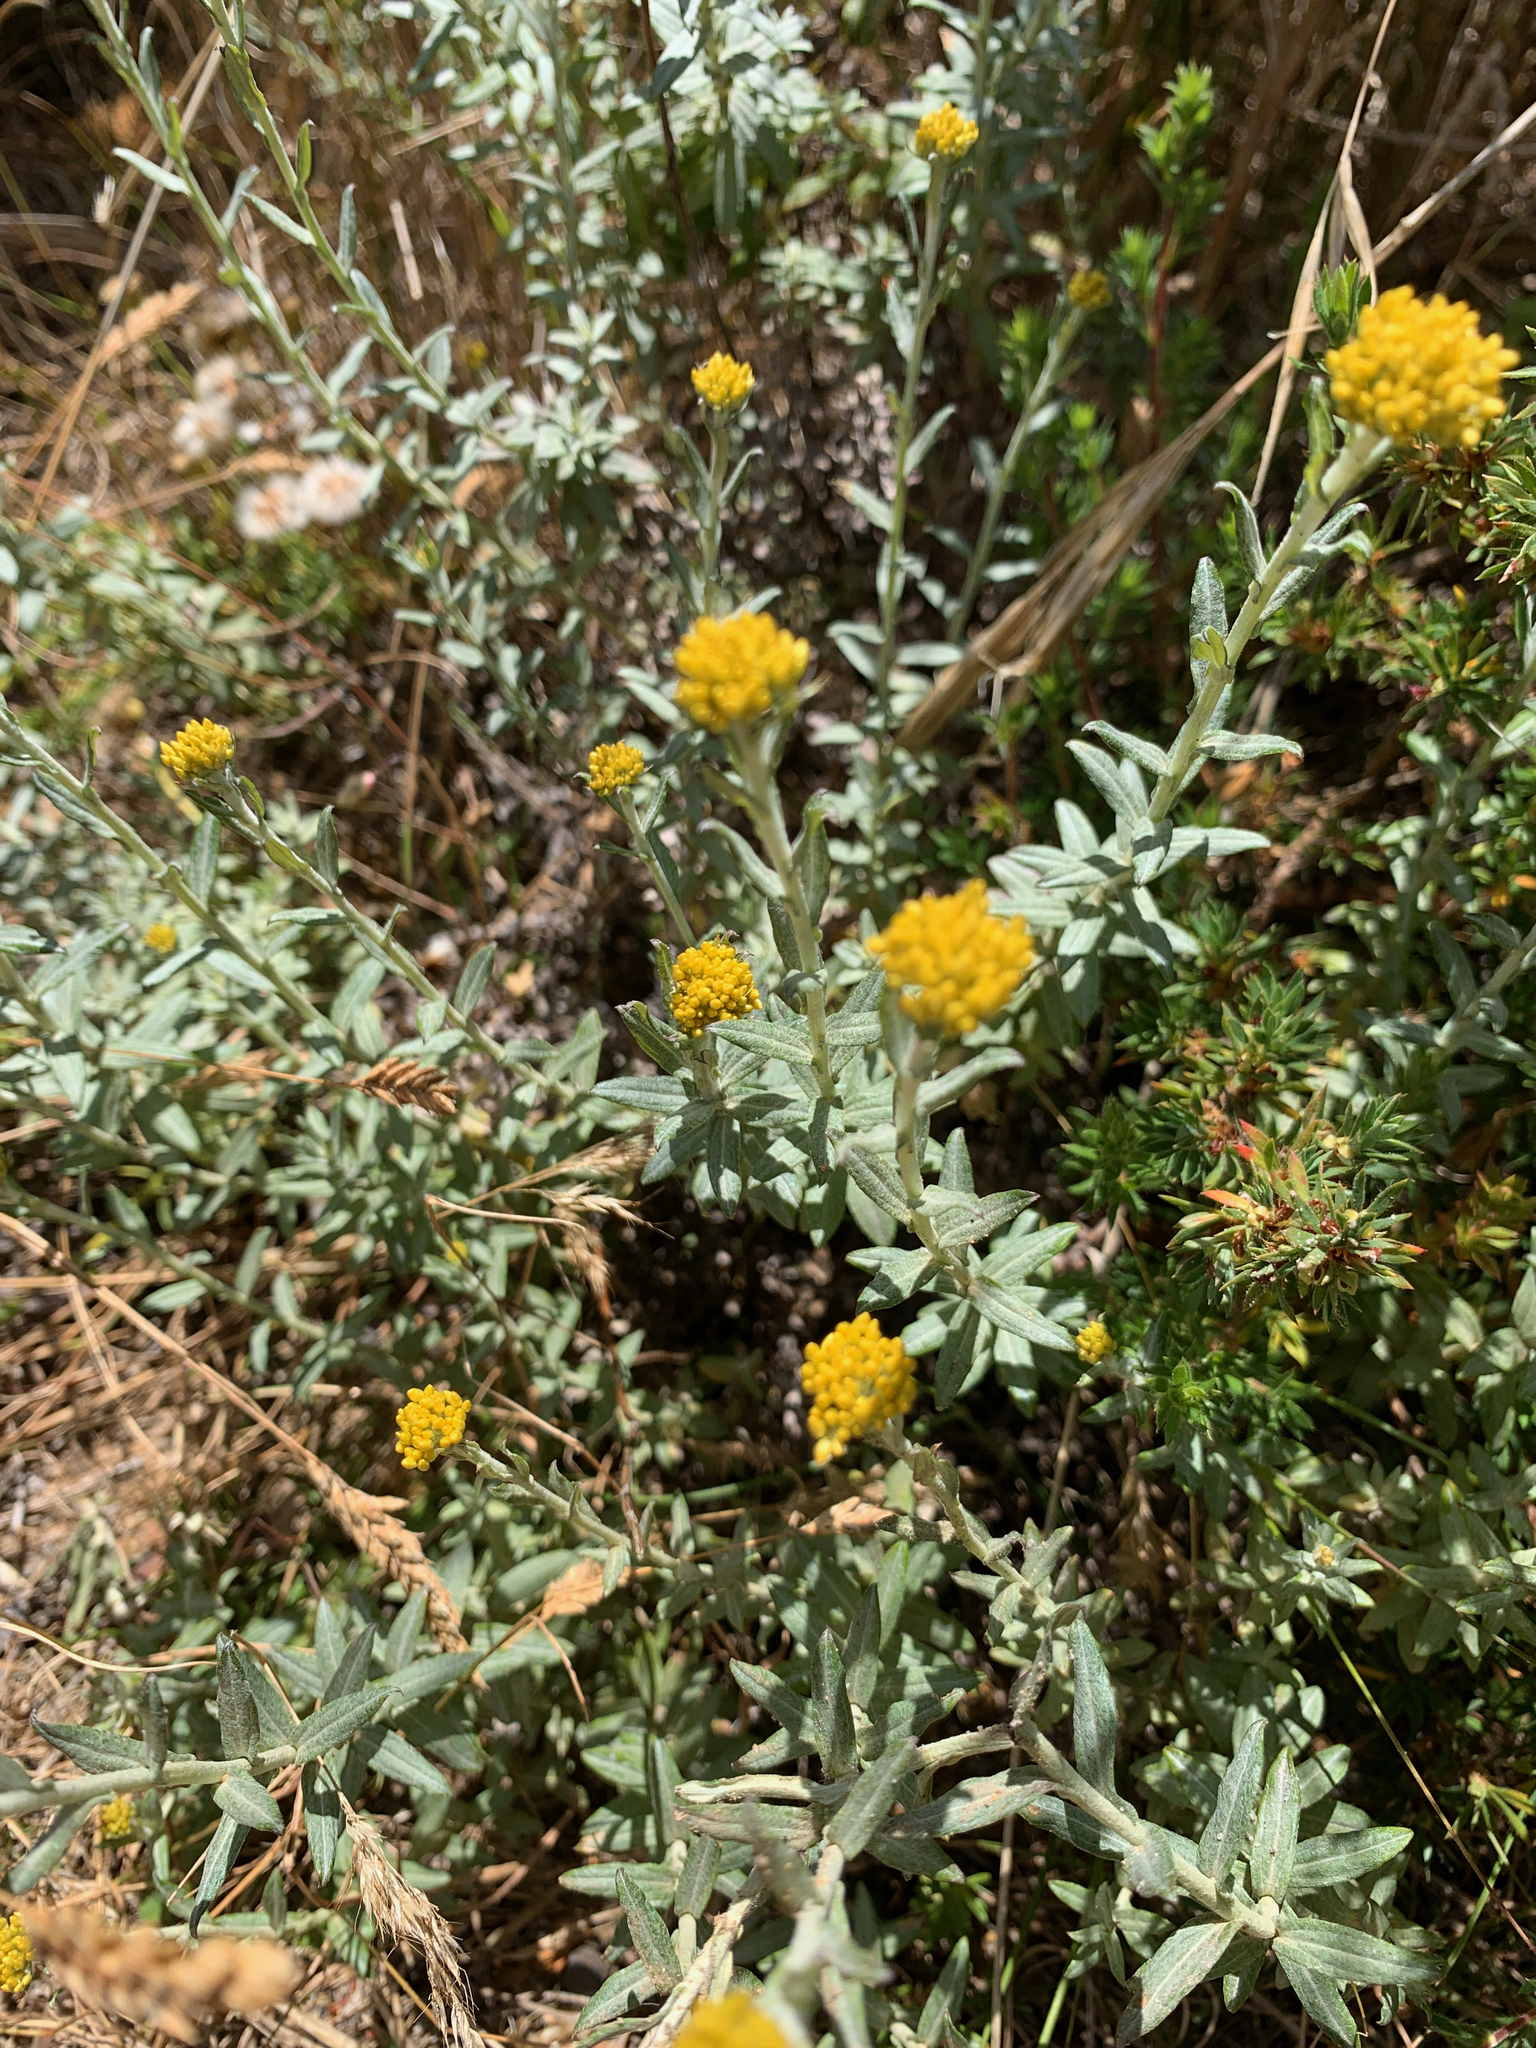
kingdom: Plantae
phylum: Tracheophyta
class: Magnoliopsida
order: Asterales
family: Asteraceae
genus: Helichrysum
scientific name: Helichrysum cymosum
